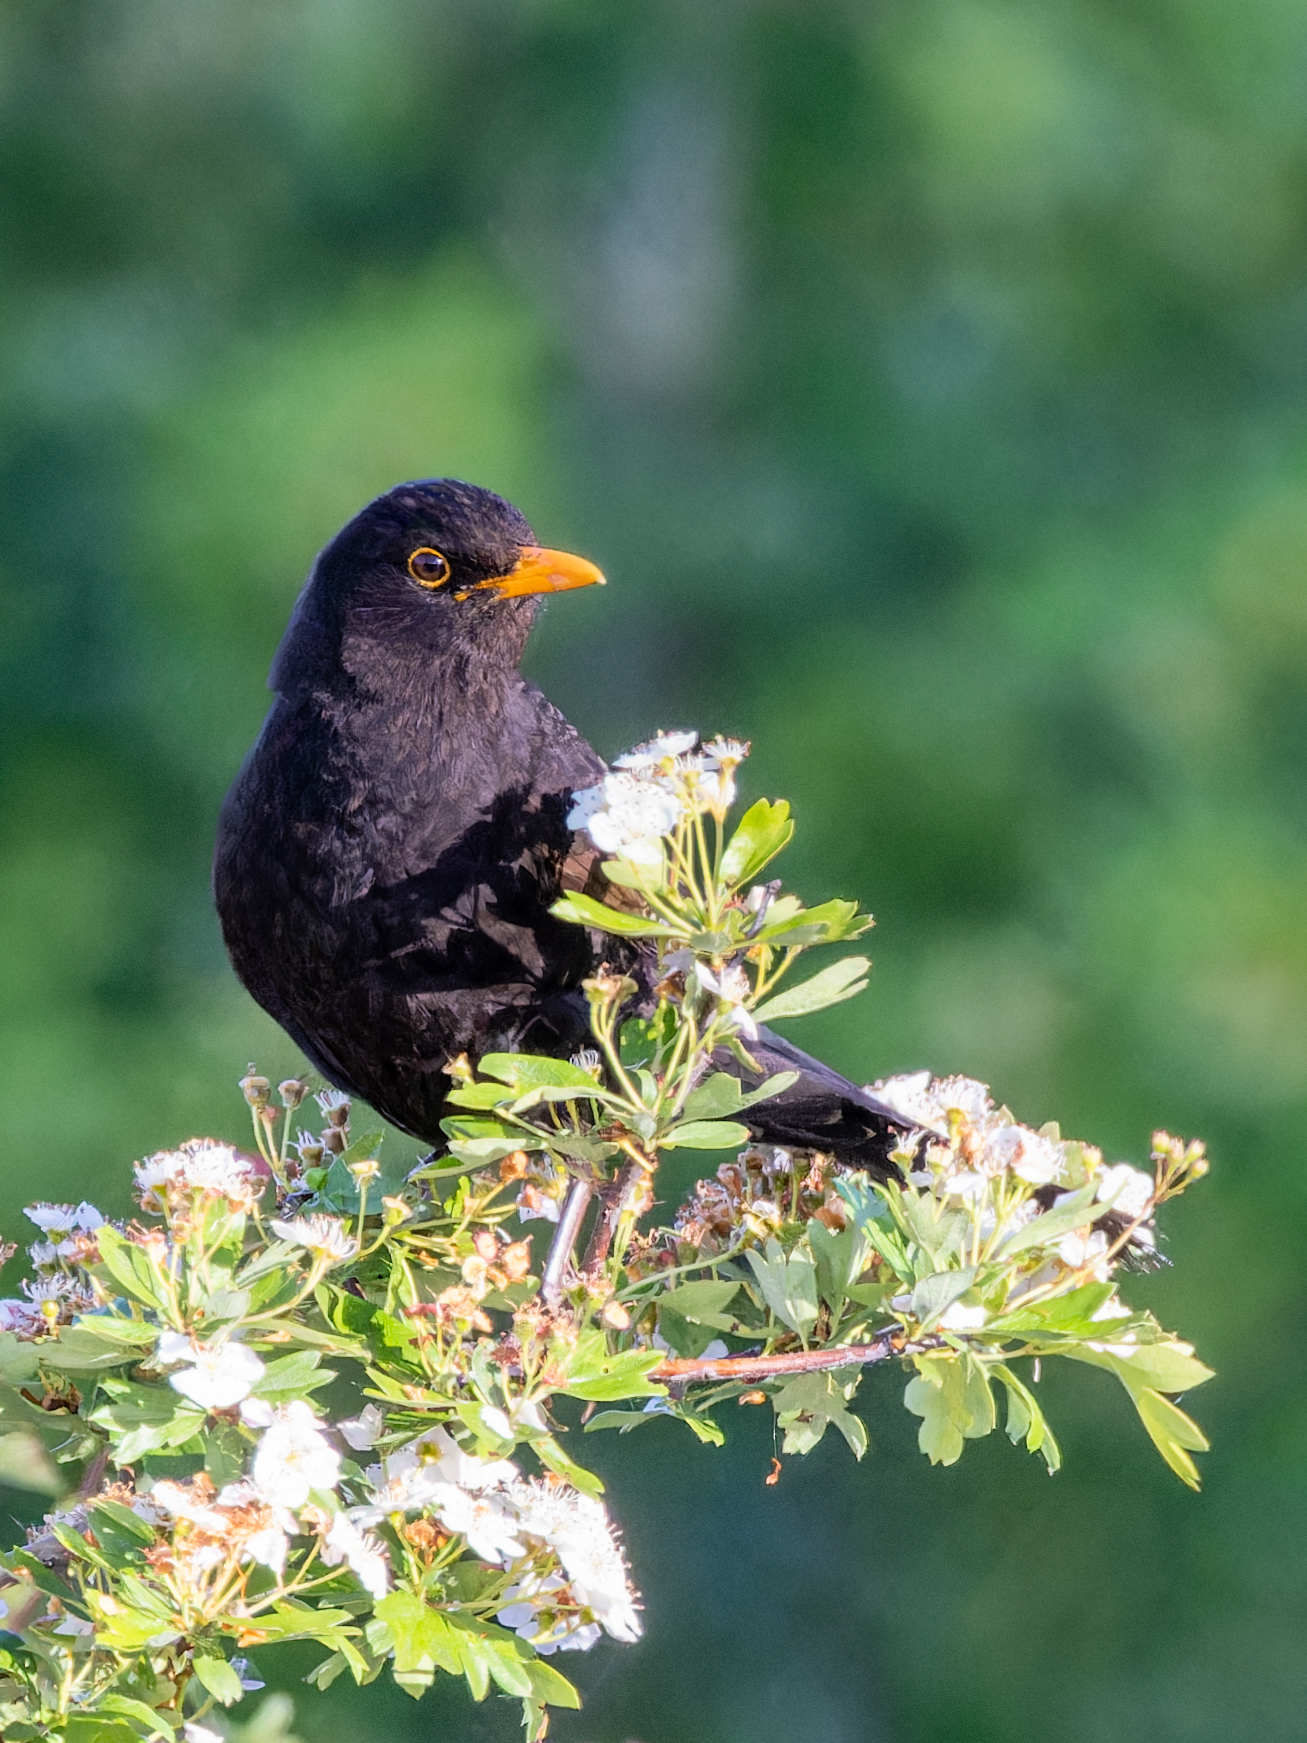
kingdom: Animalia
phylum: Chordata
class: Aves
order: Passeriformes
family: Turdidae
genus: Turdus
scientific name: Turdus merula
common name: Common blackbird
